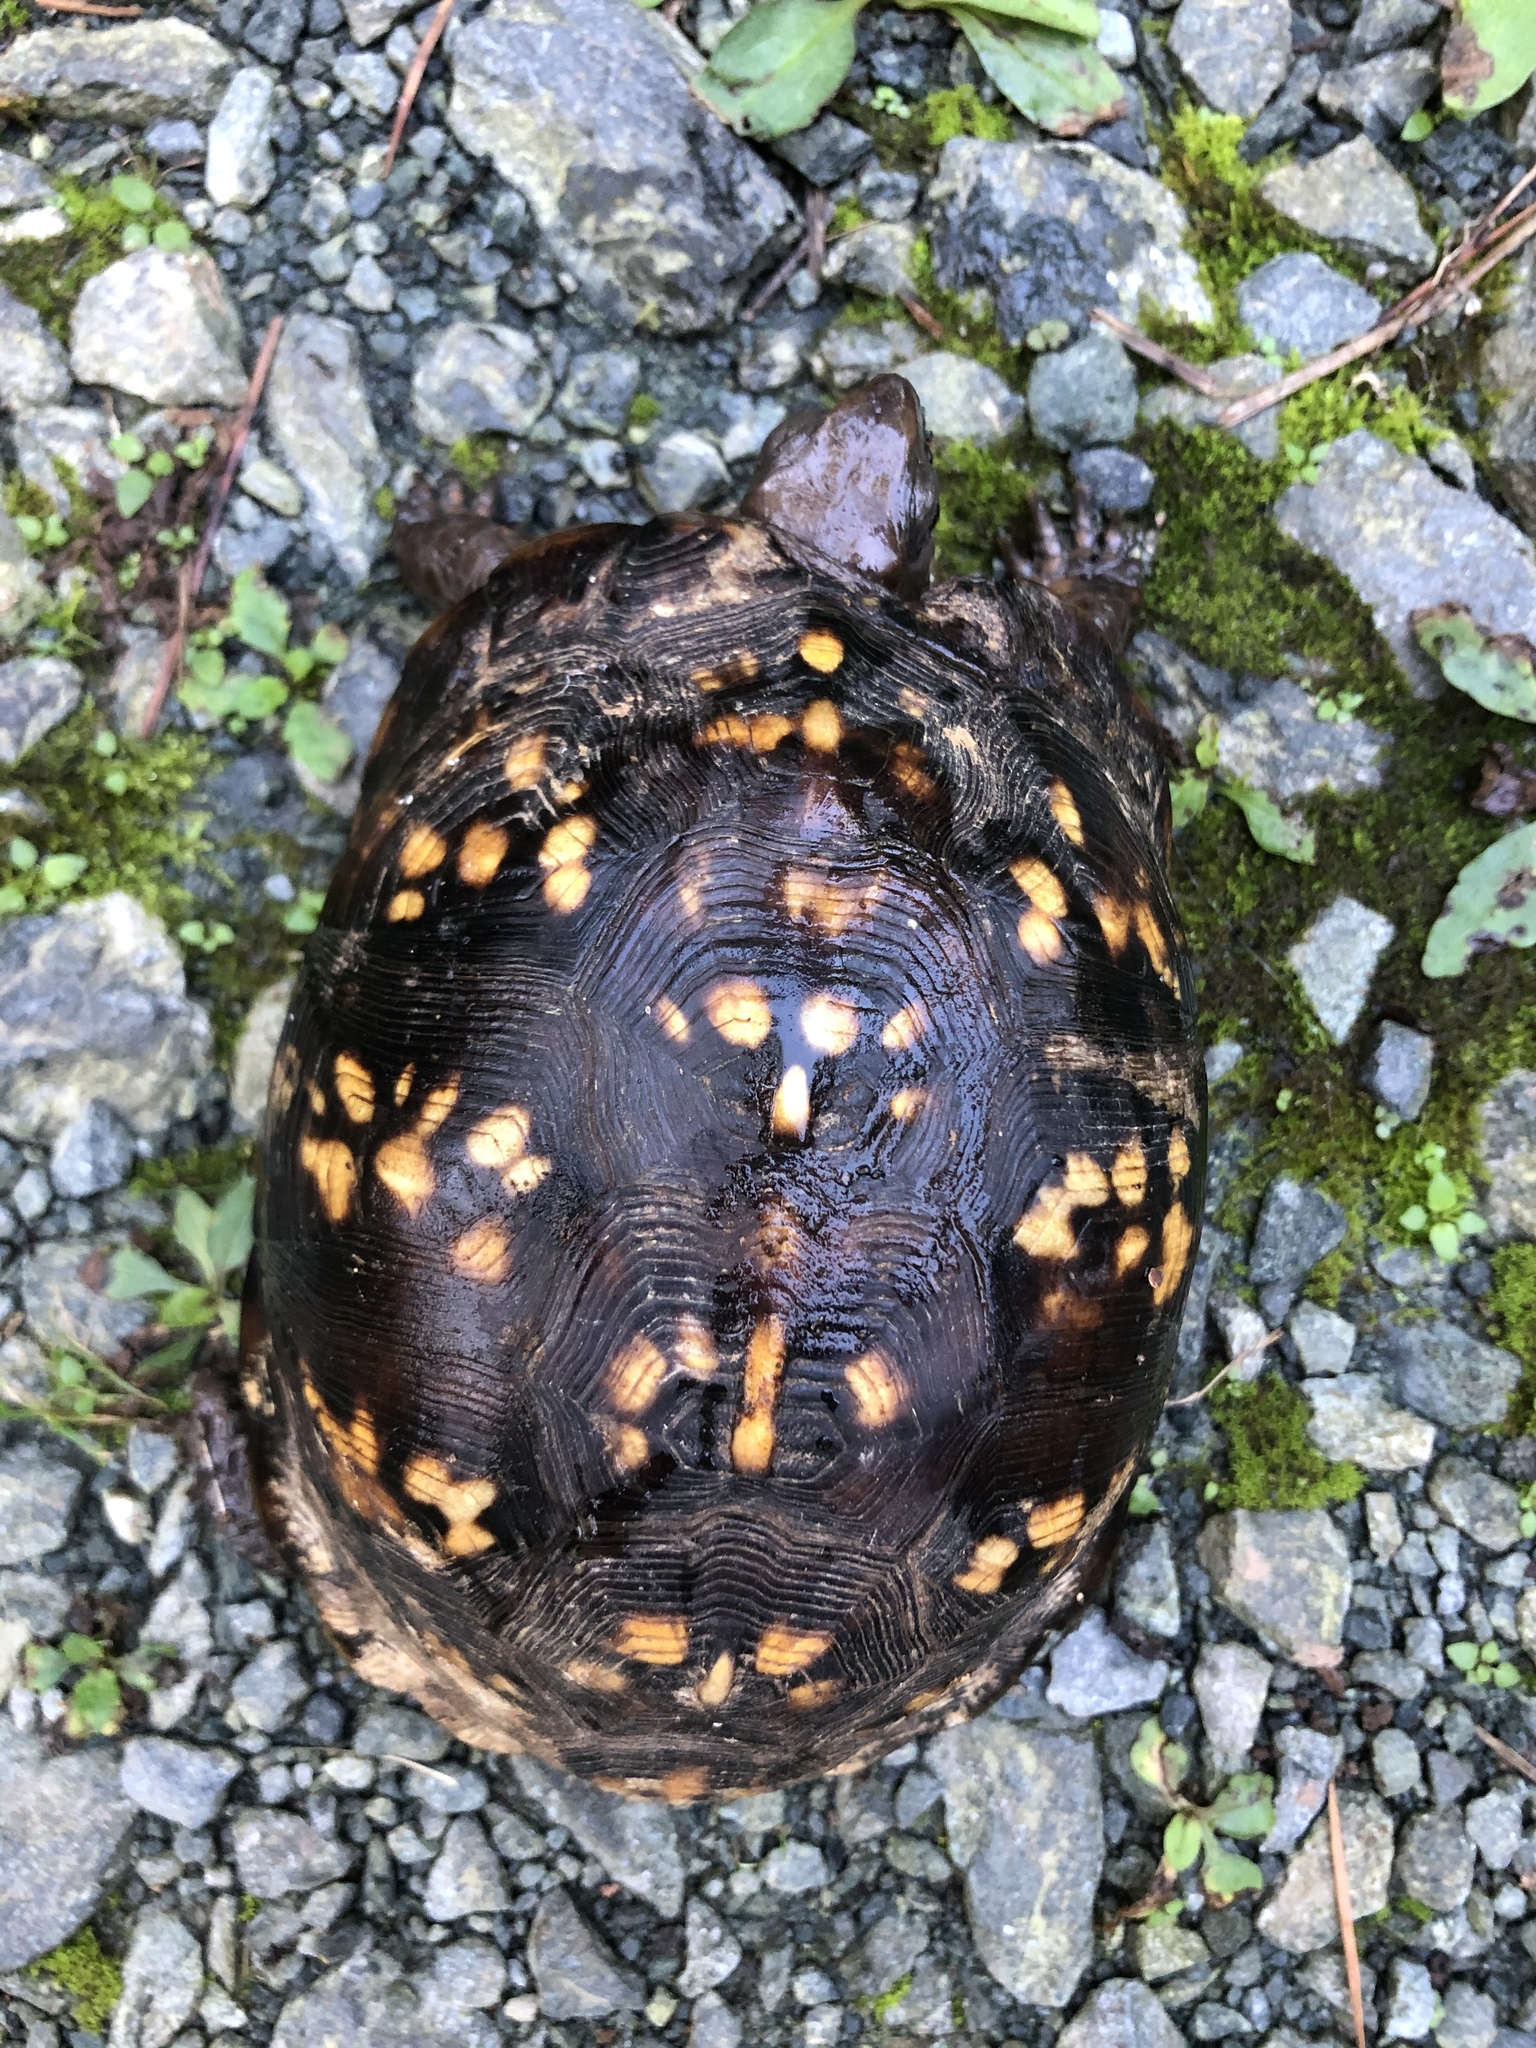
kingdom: Animalia
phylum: Chordata
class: Testudines
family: Emydidae
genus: Terrapene
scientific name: Terrapene carolina
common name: Common box turtle
